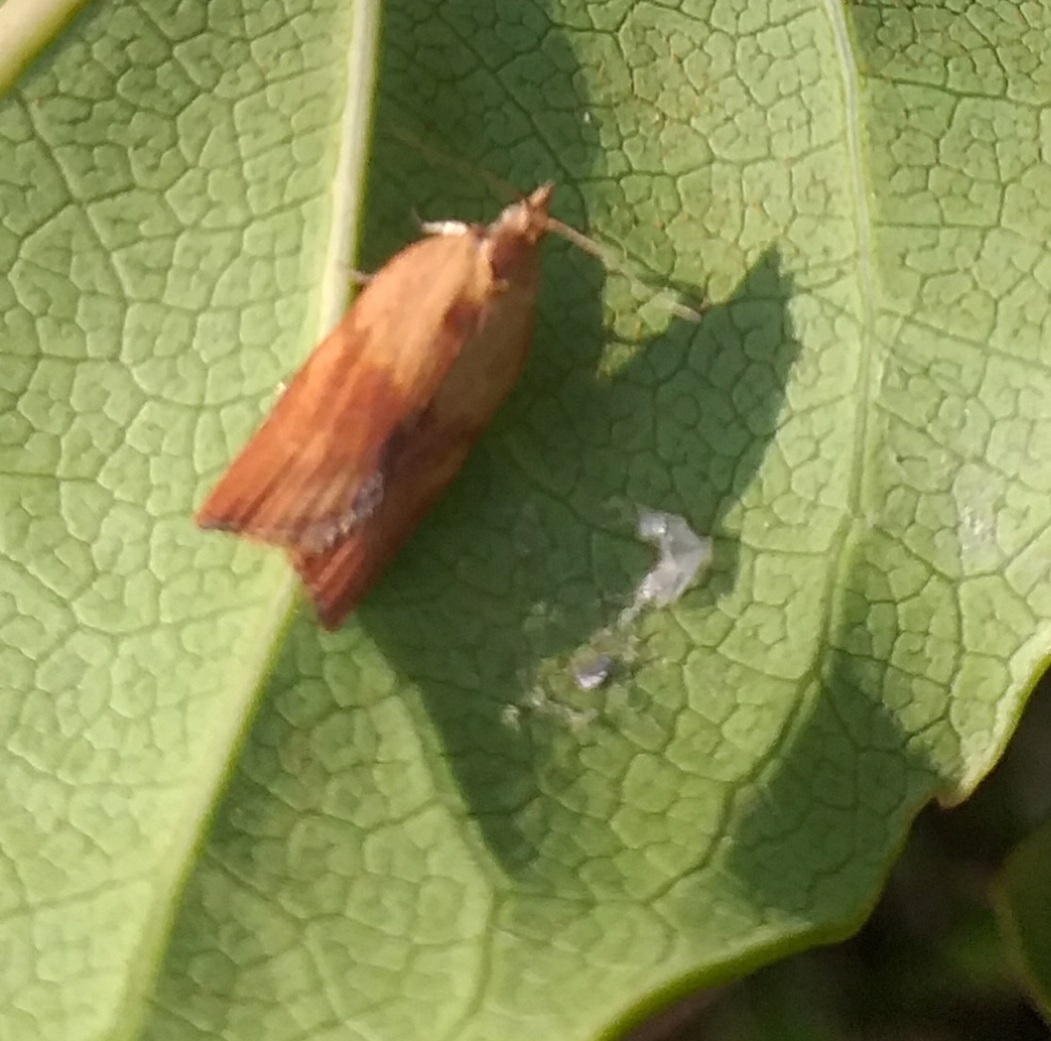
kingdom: Animalia
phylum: Arthropoda
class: Insecta
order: Lepidoptera
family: Tortricidae
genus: Epiphyas
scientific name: Epiphyas postvittana
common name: Light brown apple moth
